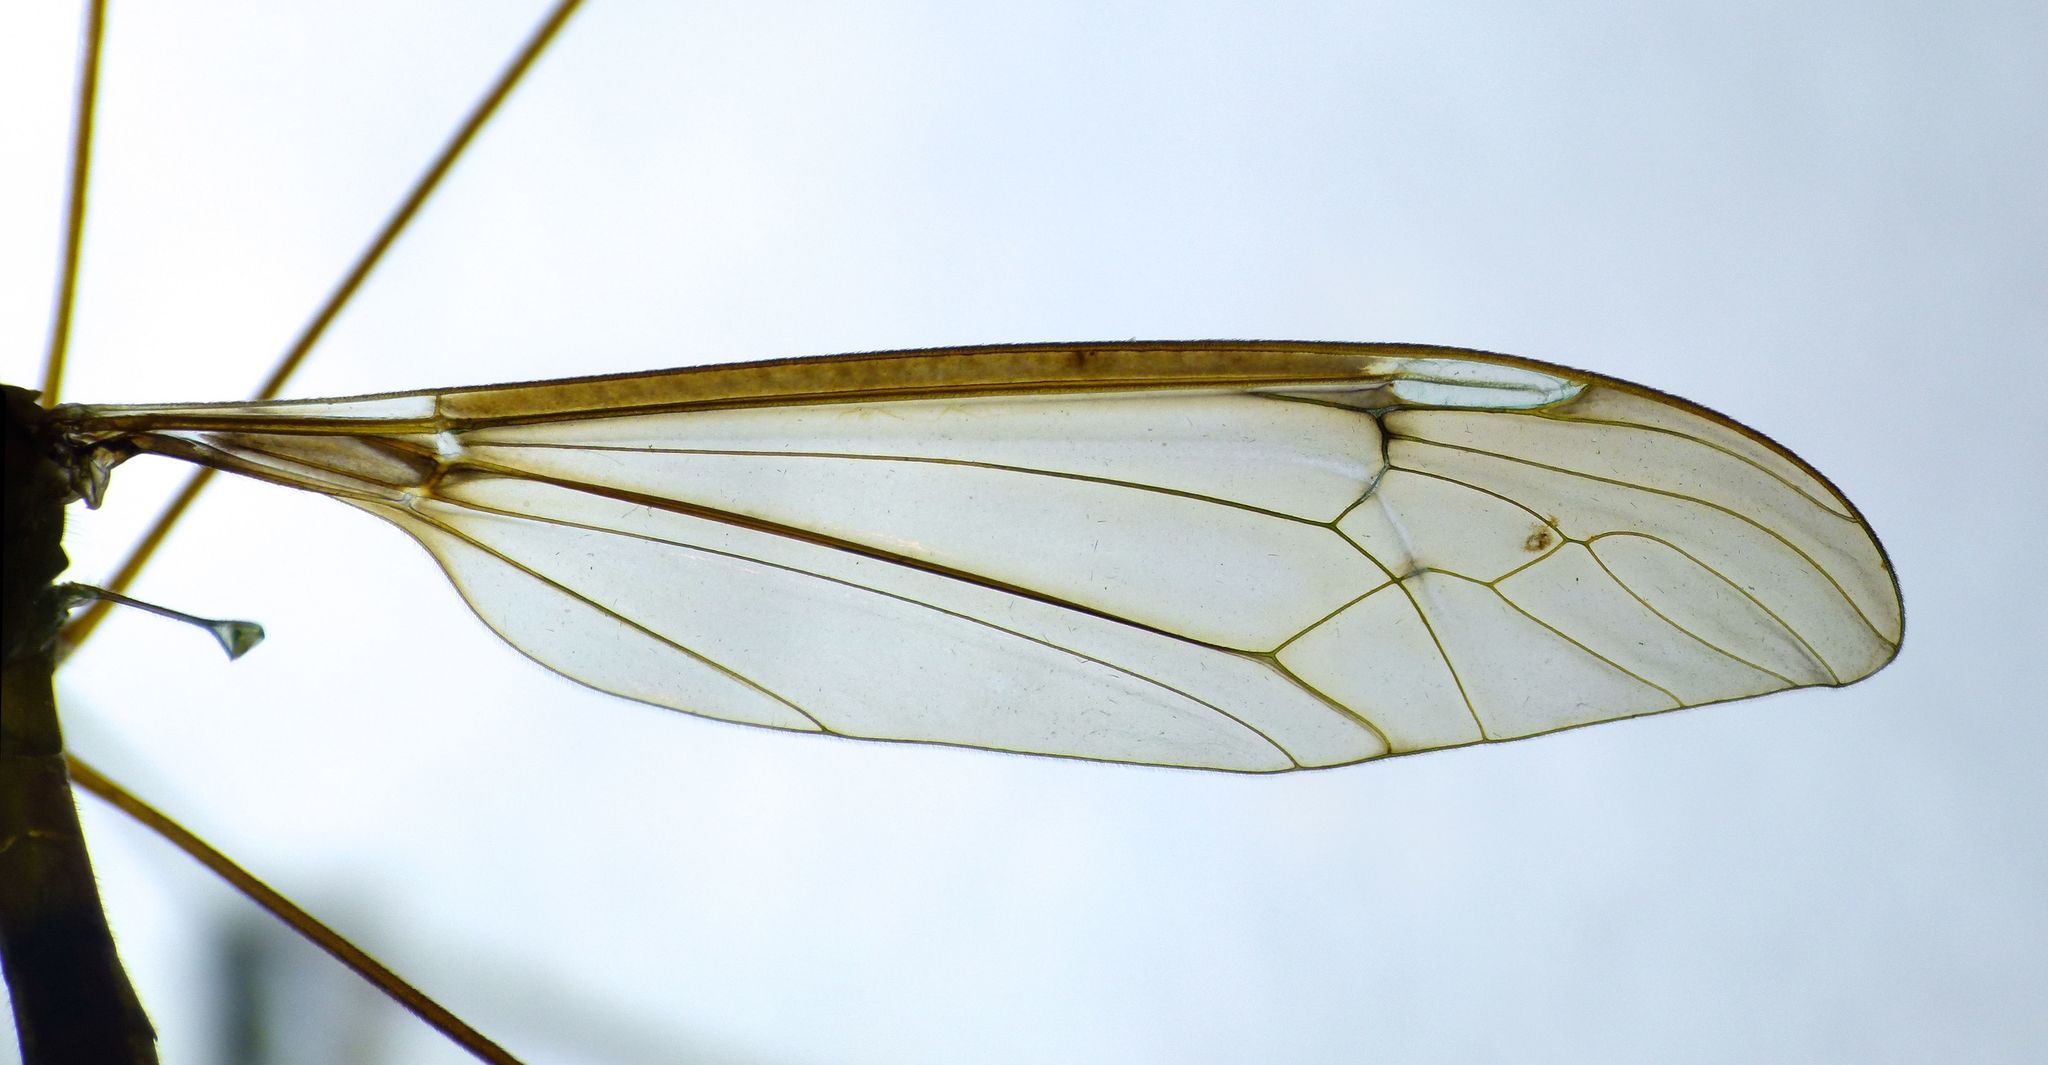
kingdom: Animalia
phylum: Arthropoda
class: Insecta
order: Diptera
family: Tipulidae
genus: Leptotarsus
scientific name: Leptotarsus albistigma
